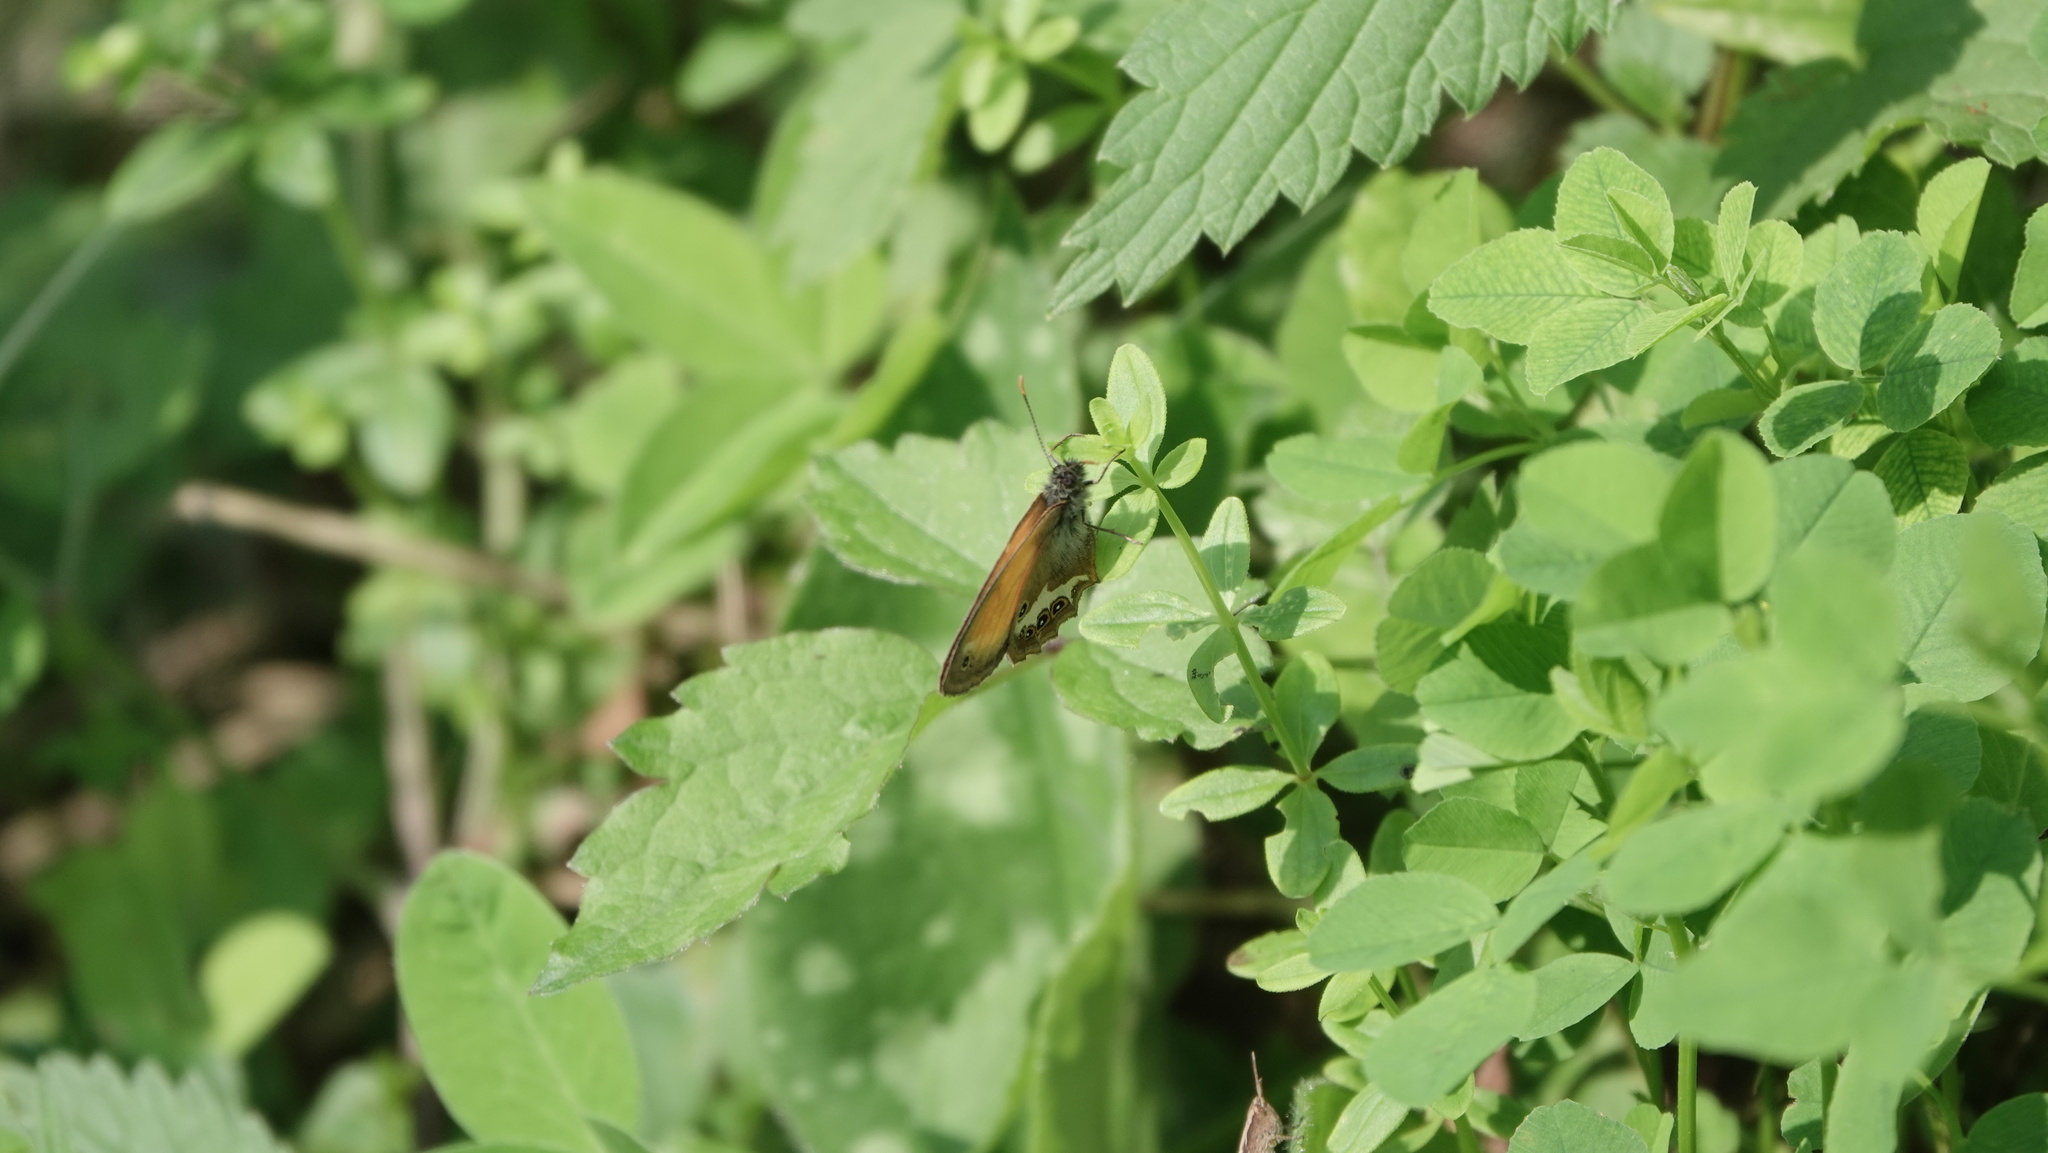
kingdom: Animalia
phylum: Arthropoda
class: Insecta
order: Lepidoptera
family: Nymphalidae
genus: Coenonympha
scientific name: Coenonympha arcania
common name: Pearly heath
